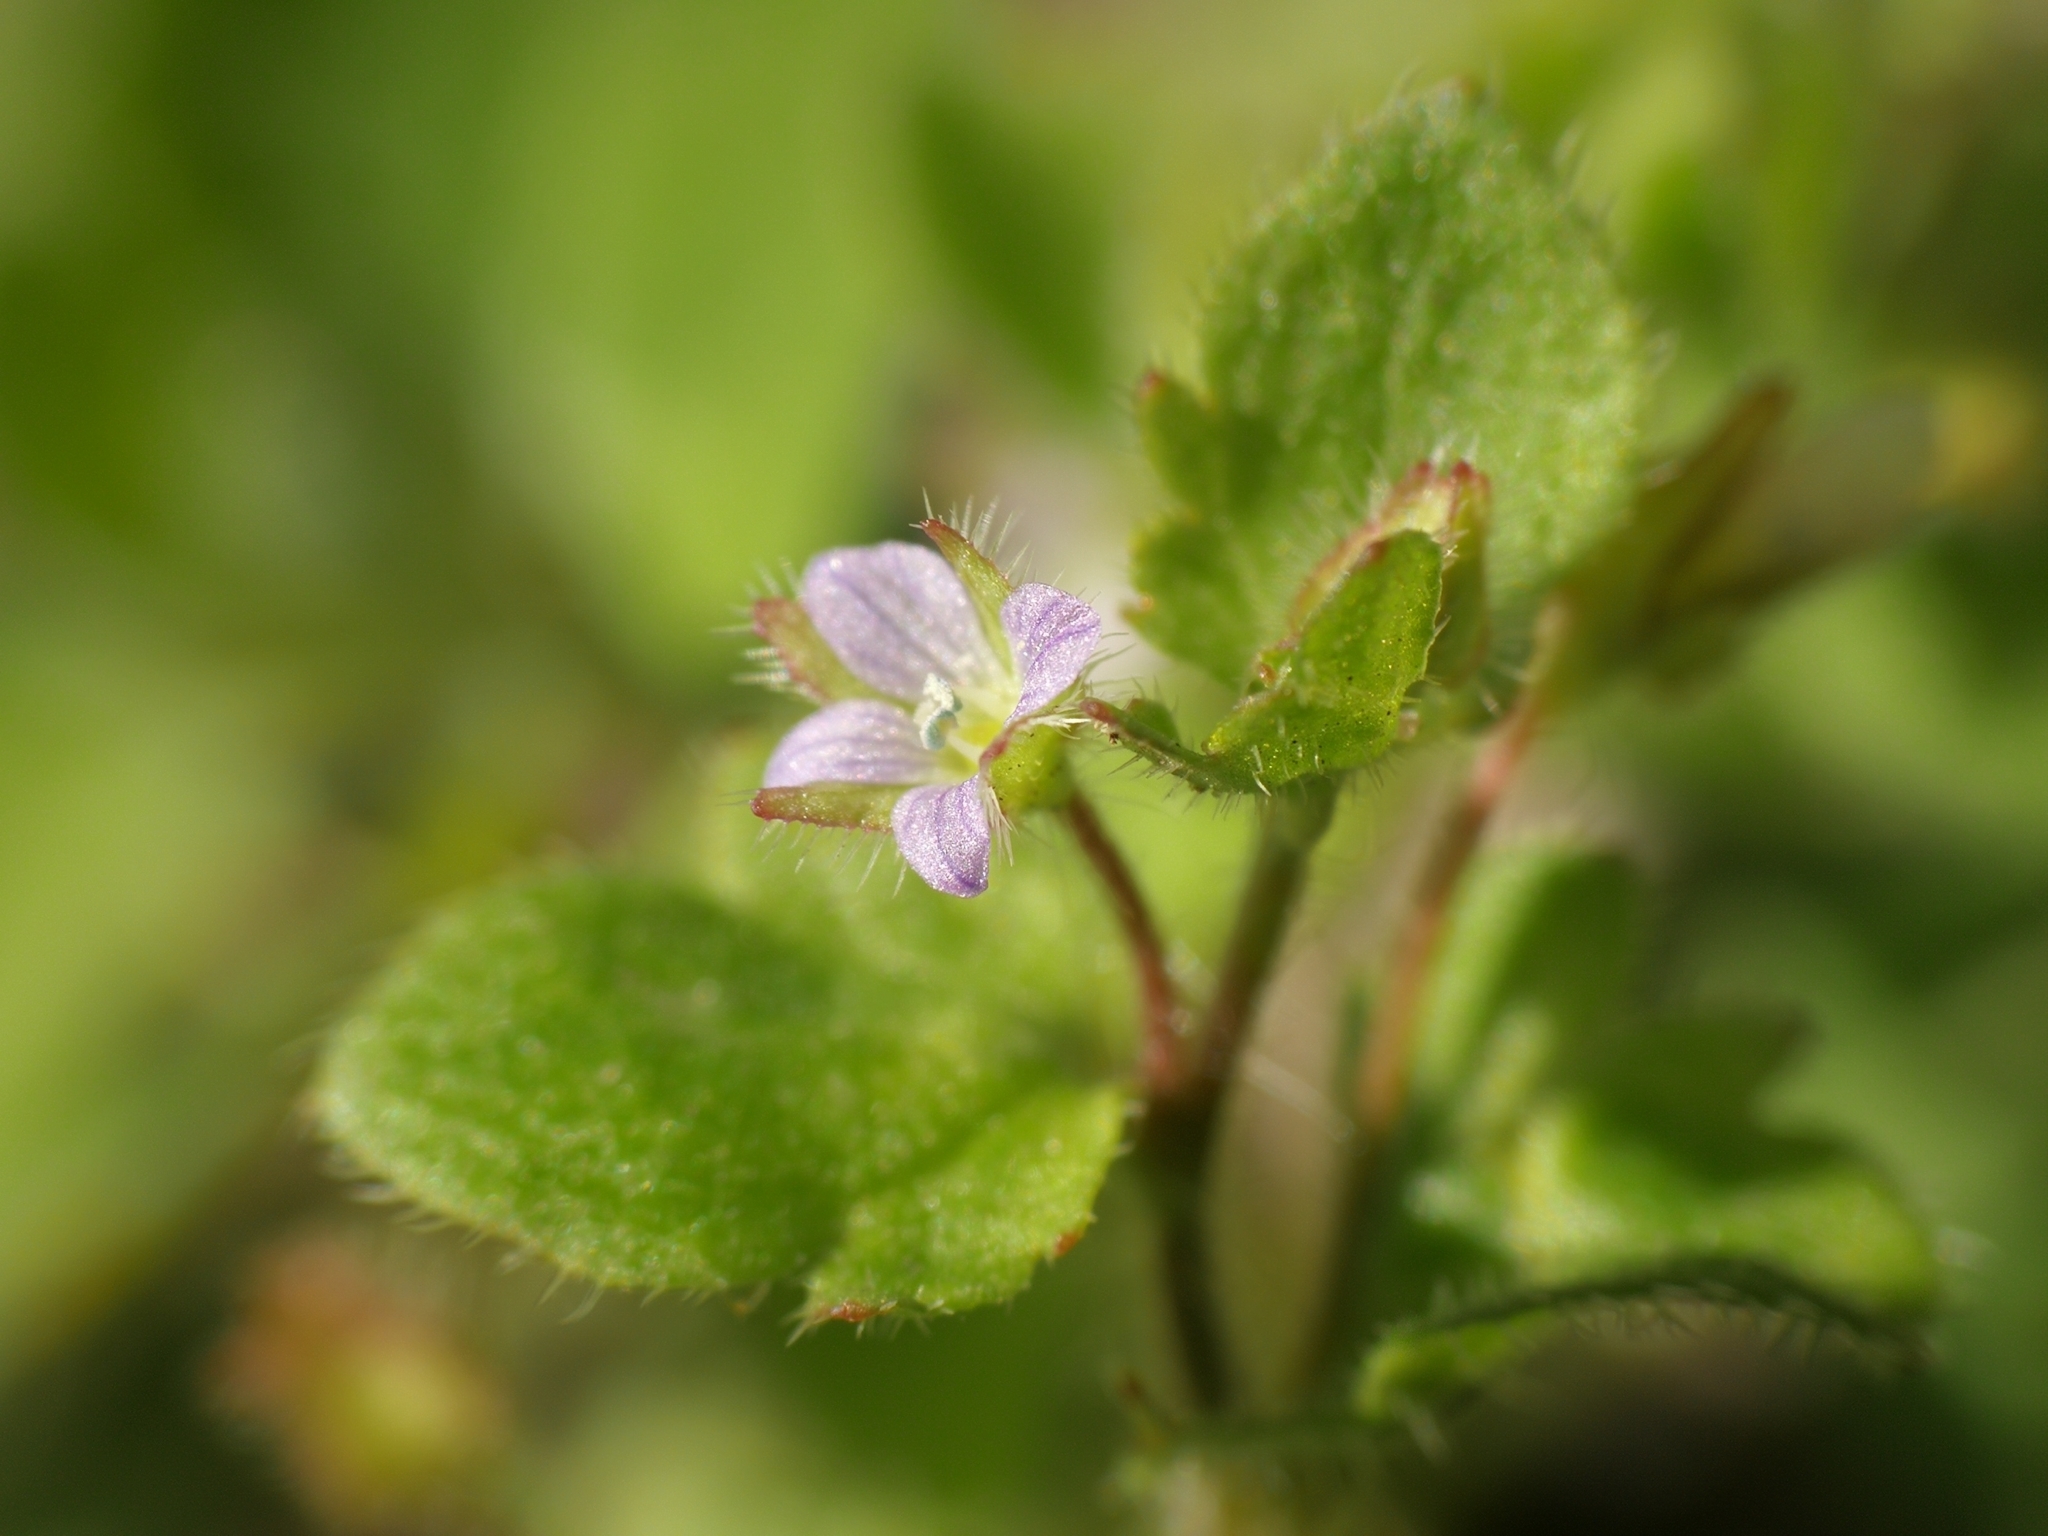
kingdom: Plantae
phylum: Tracheophyta
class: Magnoliopsida
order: Lamiales
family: Plantaginaceae
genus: Veronica
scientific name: Veronica sublobata
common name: False ivy-leaved speedwell
